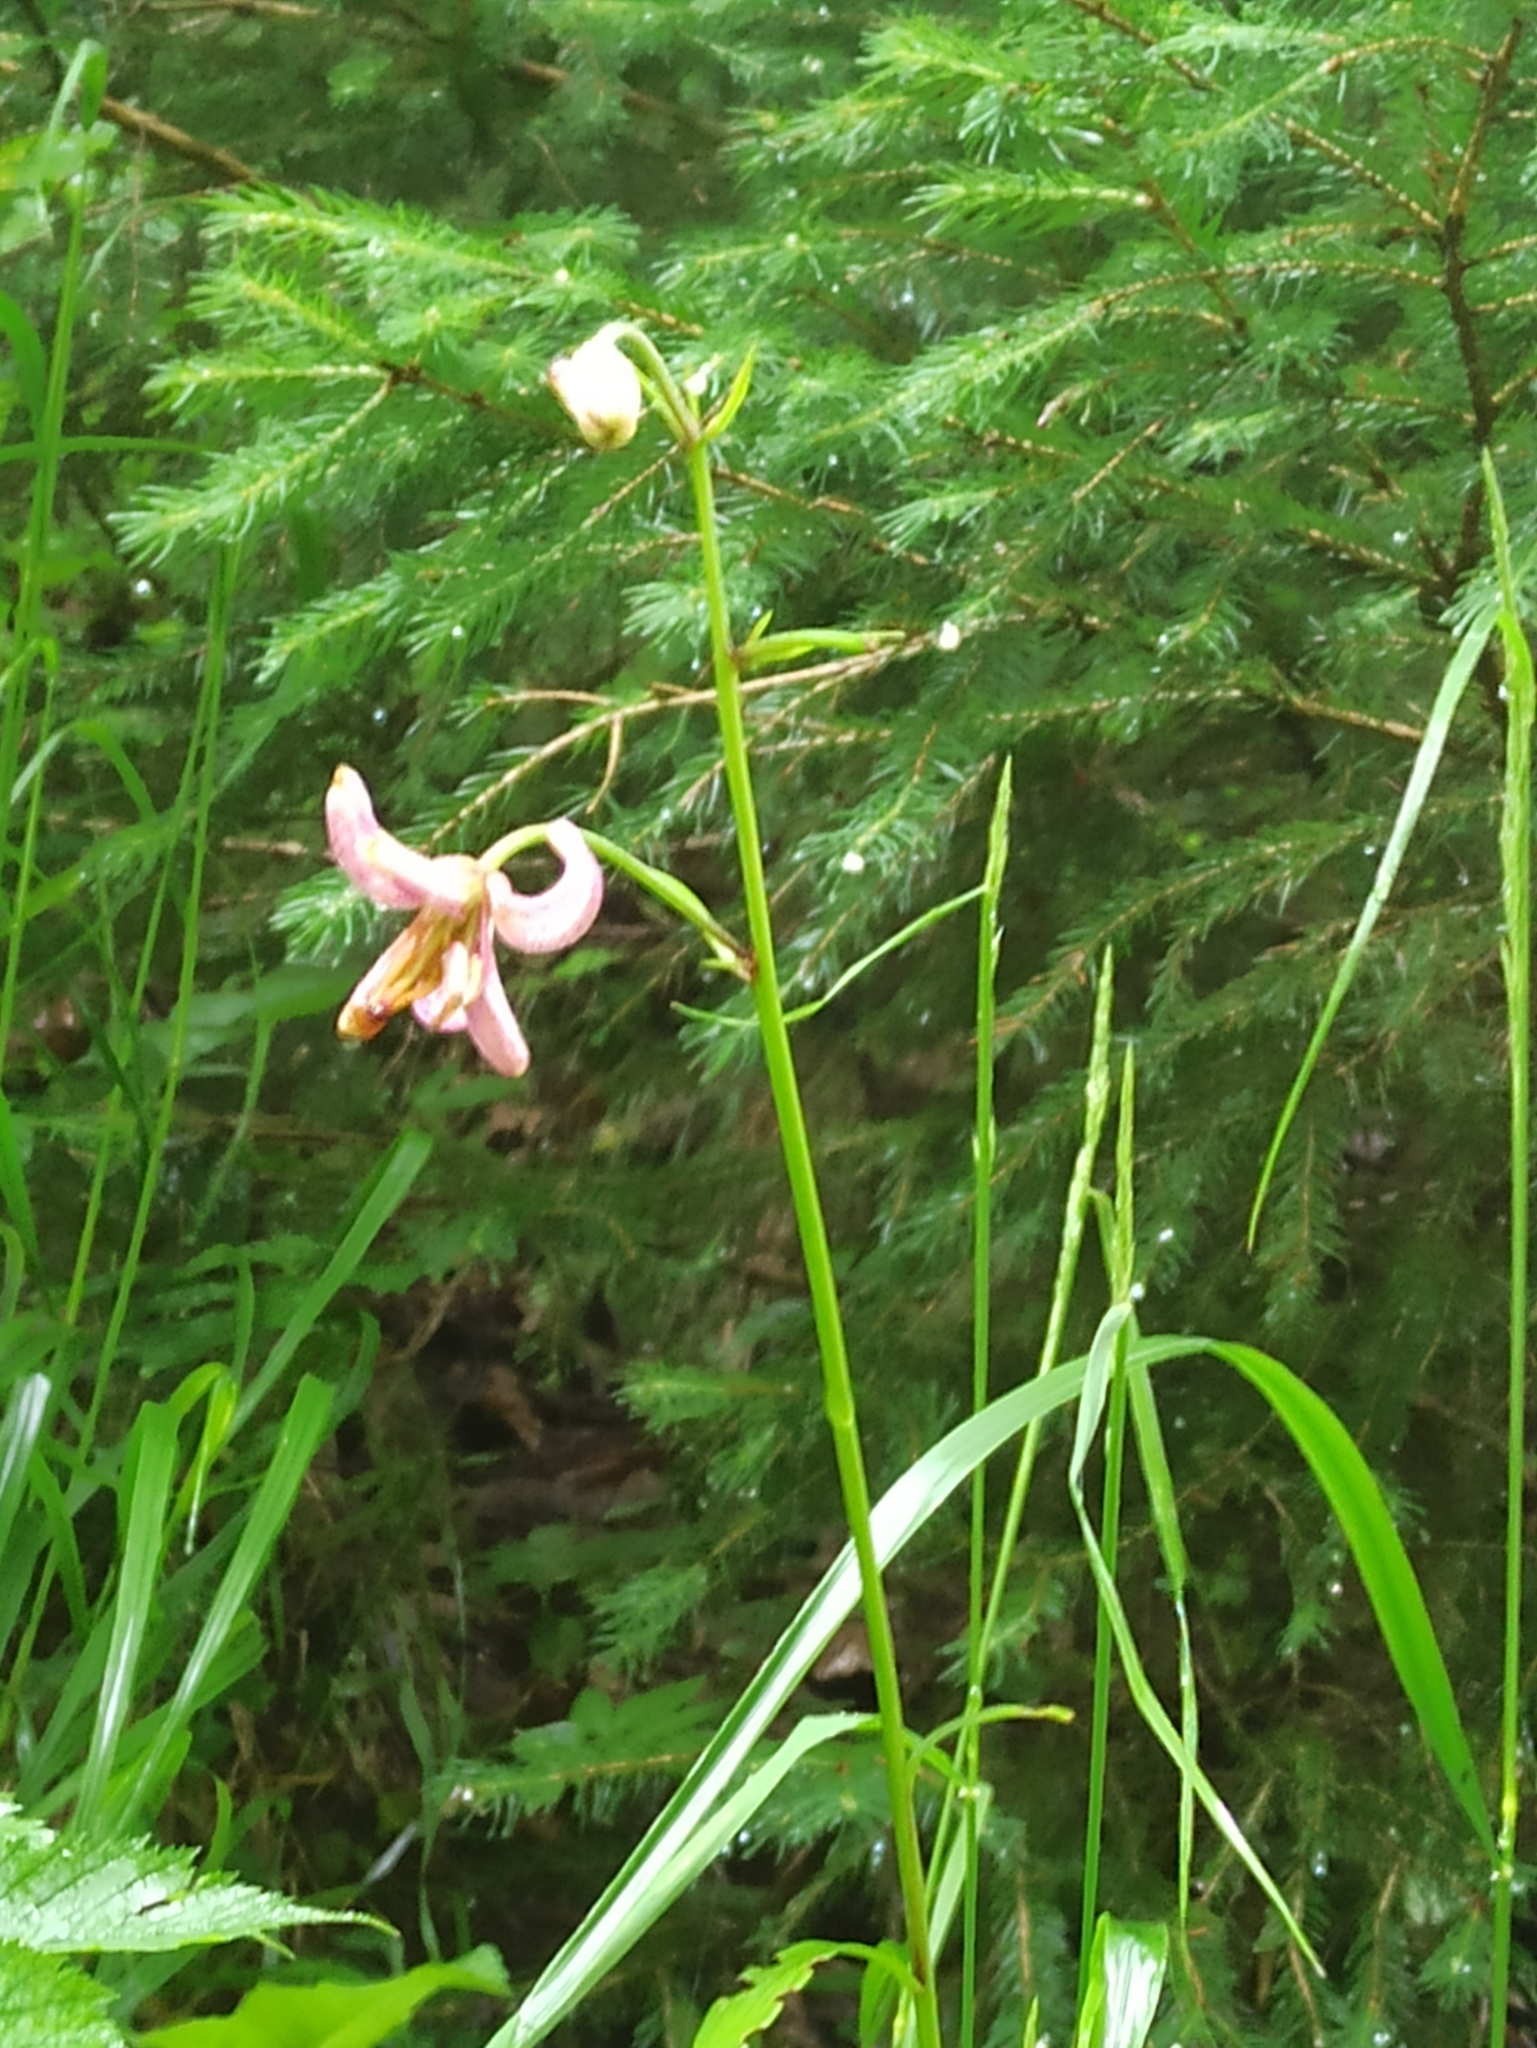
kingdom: Plantae
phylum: Tracheophyta
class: Liliopsida
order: Liliales
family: Liliaceae
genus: Lilium
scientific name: Lilium martagon
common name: Martagon lily
